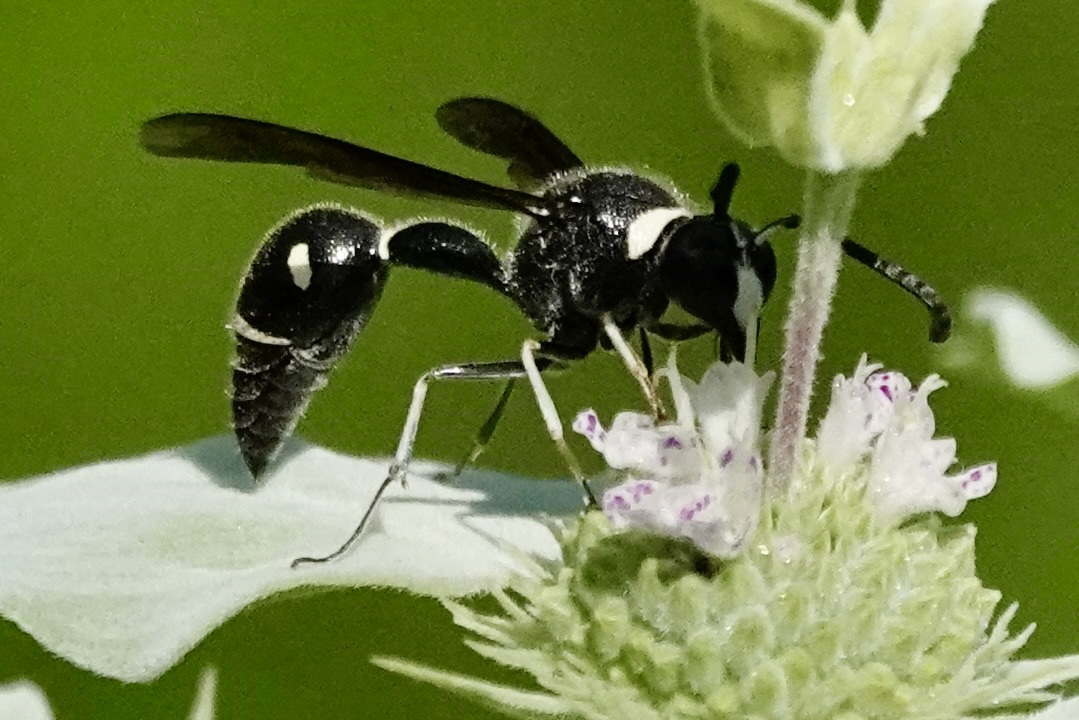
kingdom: Animalia
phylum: Arthropoda
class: Insecta
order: Hymenoptera
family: Vespidae
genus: Eumenes
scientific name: Eumenes fraternus
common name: Fraternal potter wasp
